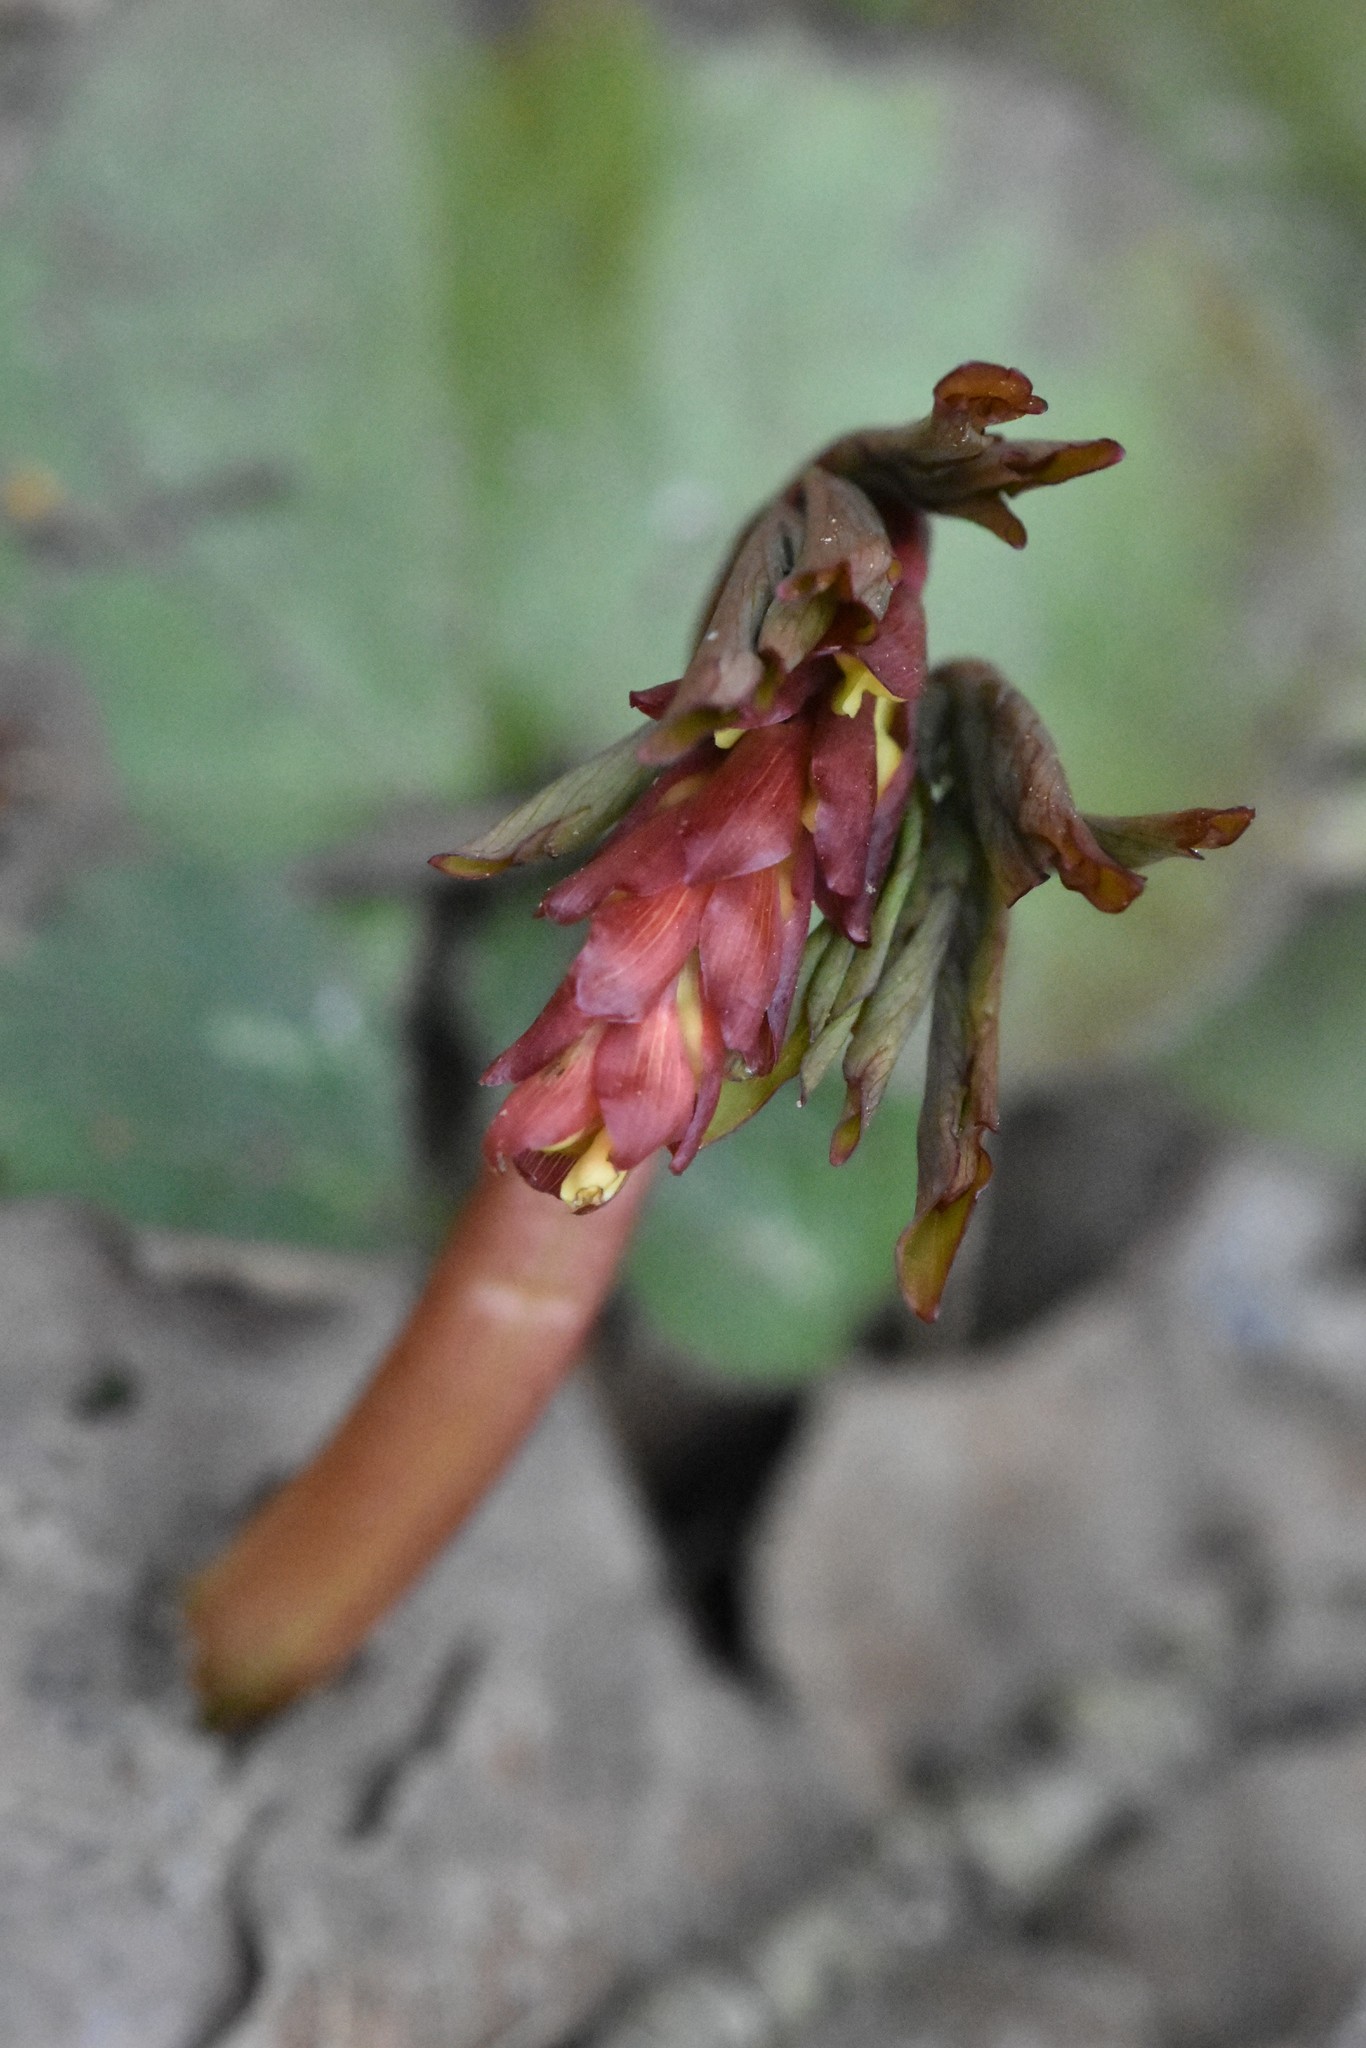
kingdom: Plantae
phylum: Tracheophyta
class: Magnoliopsida
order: Ranunculales
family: Papaveraceae
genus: Corydalis
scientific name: Corydalis cava
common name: Hollowroot
